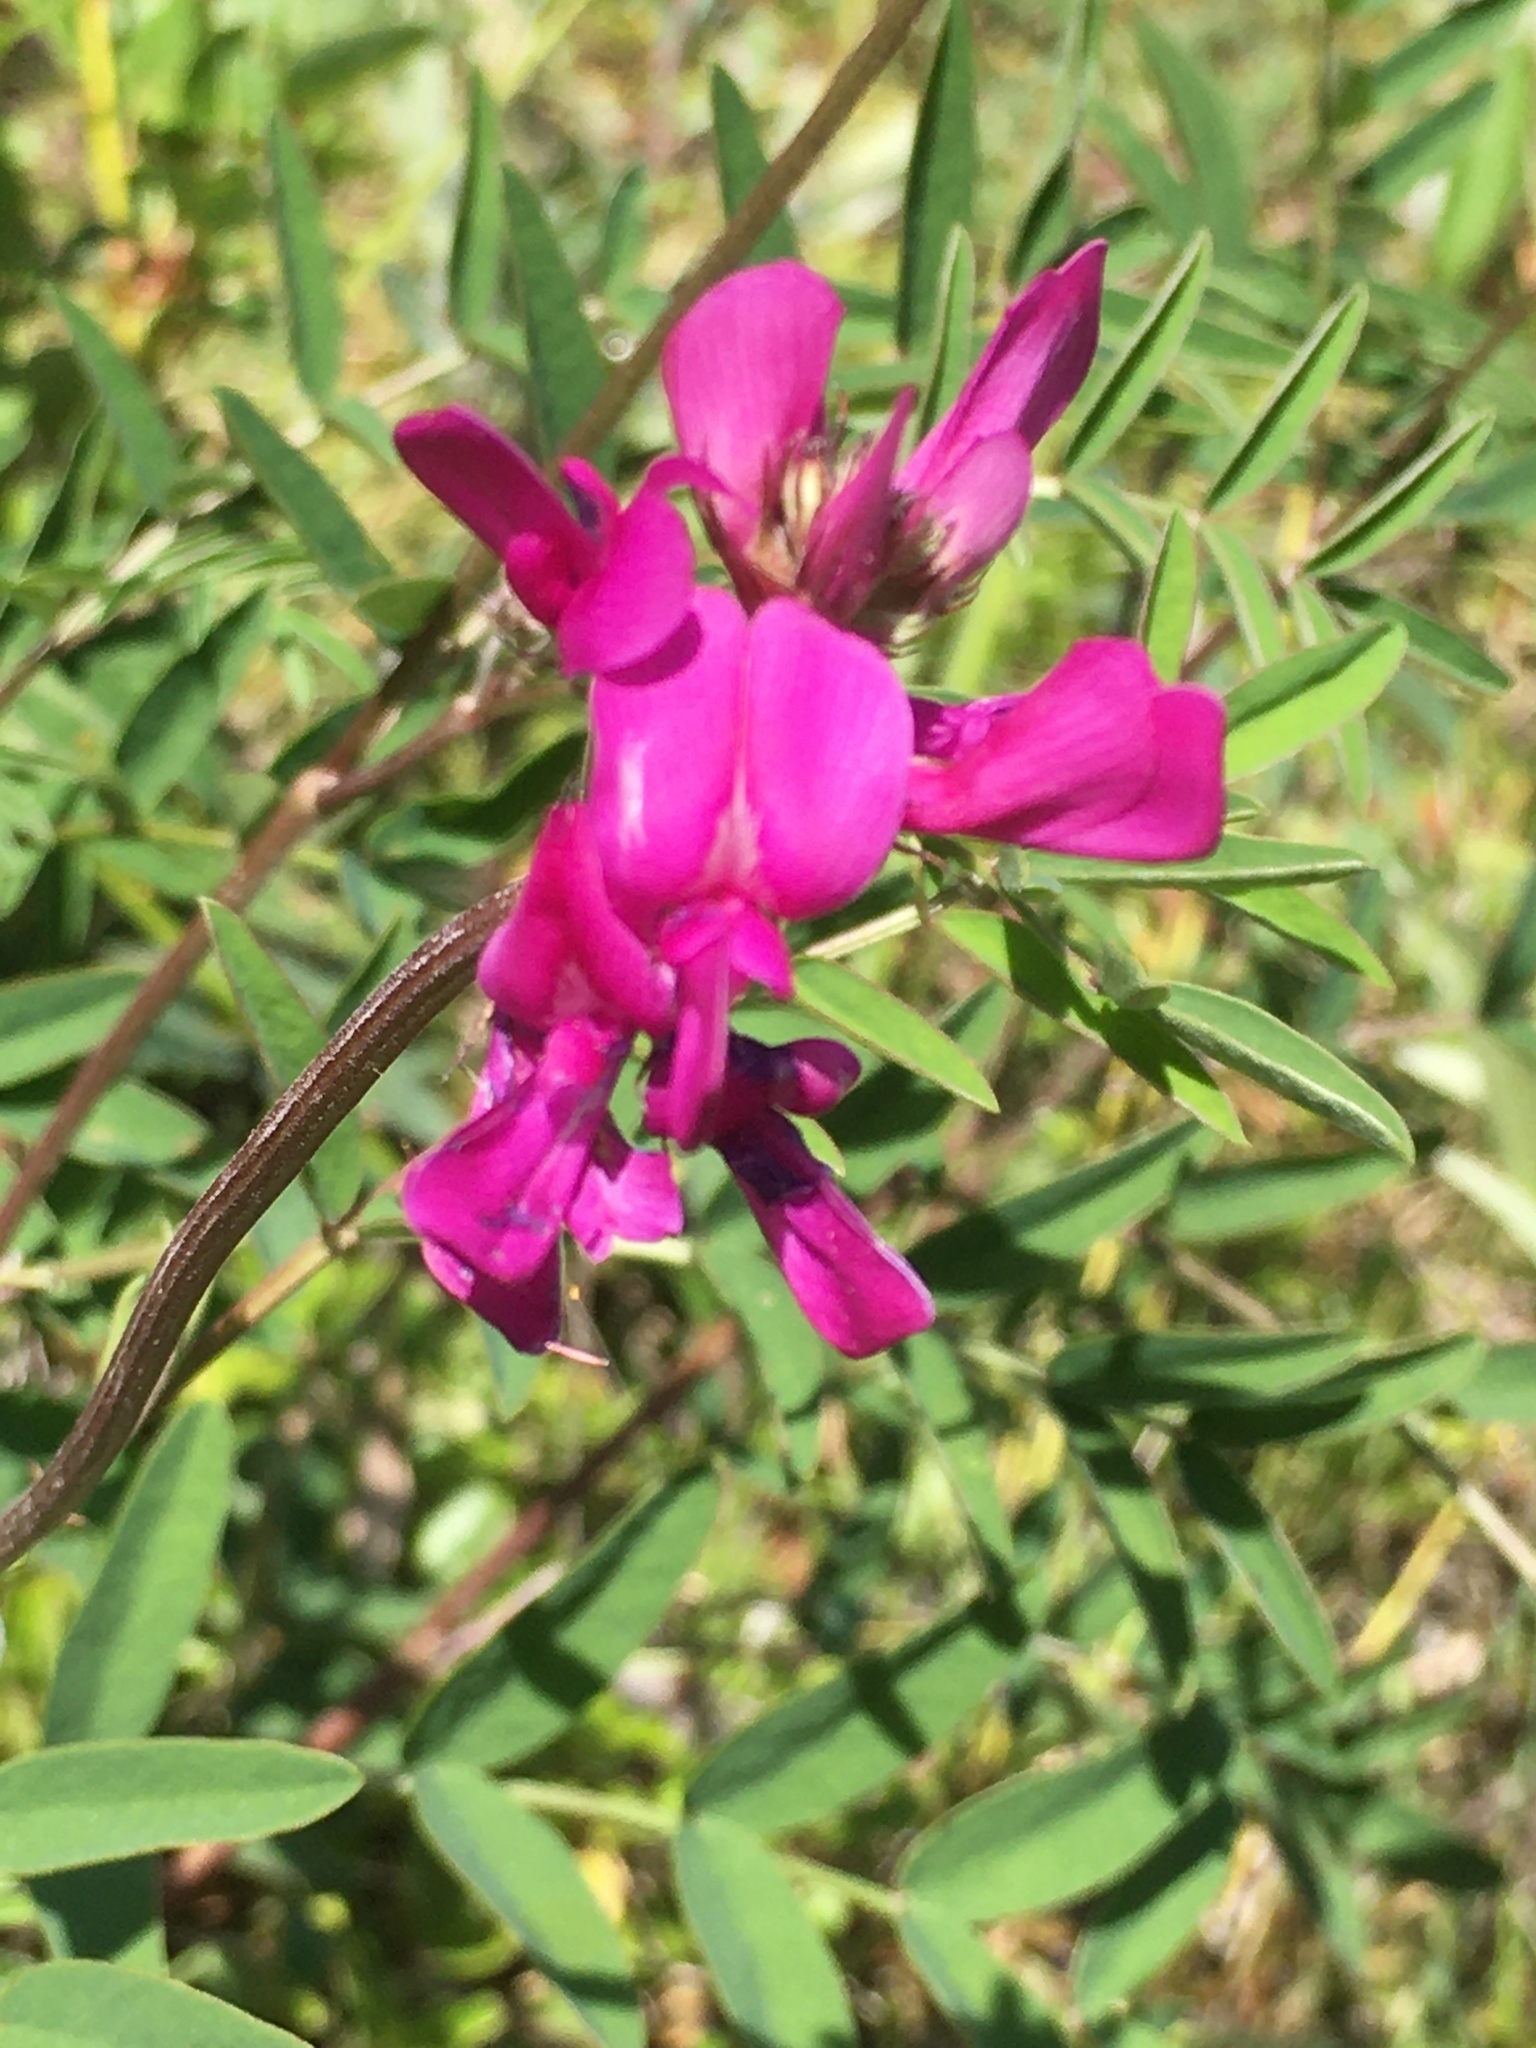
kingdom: Plantae
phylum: Tracheophyta
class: Magnoliopsida
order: Fabales
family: Fabaceae
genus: Hedysarum
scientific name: Hedysarum boreale
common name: Northern sweet-vetch
